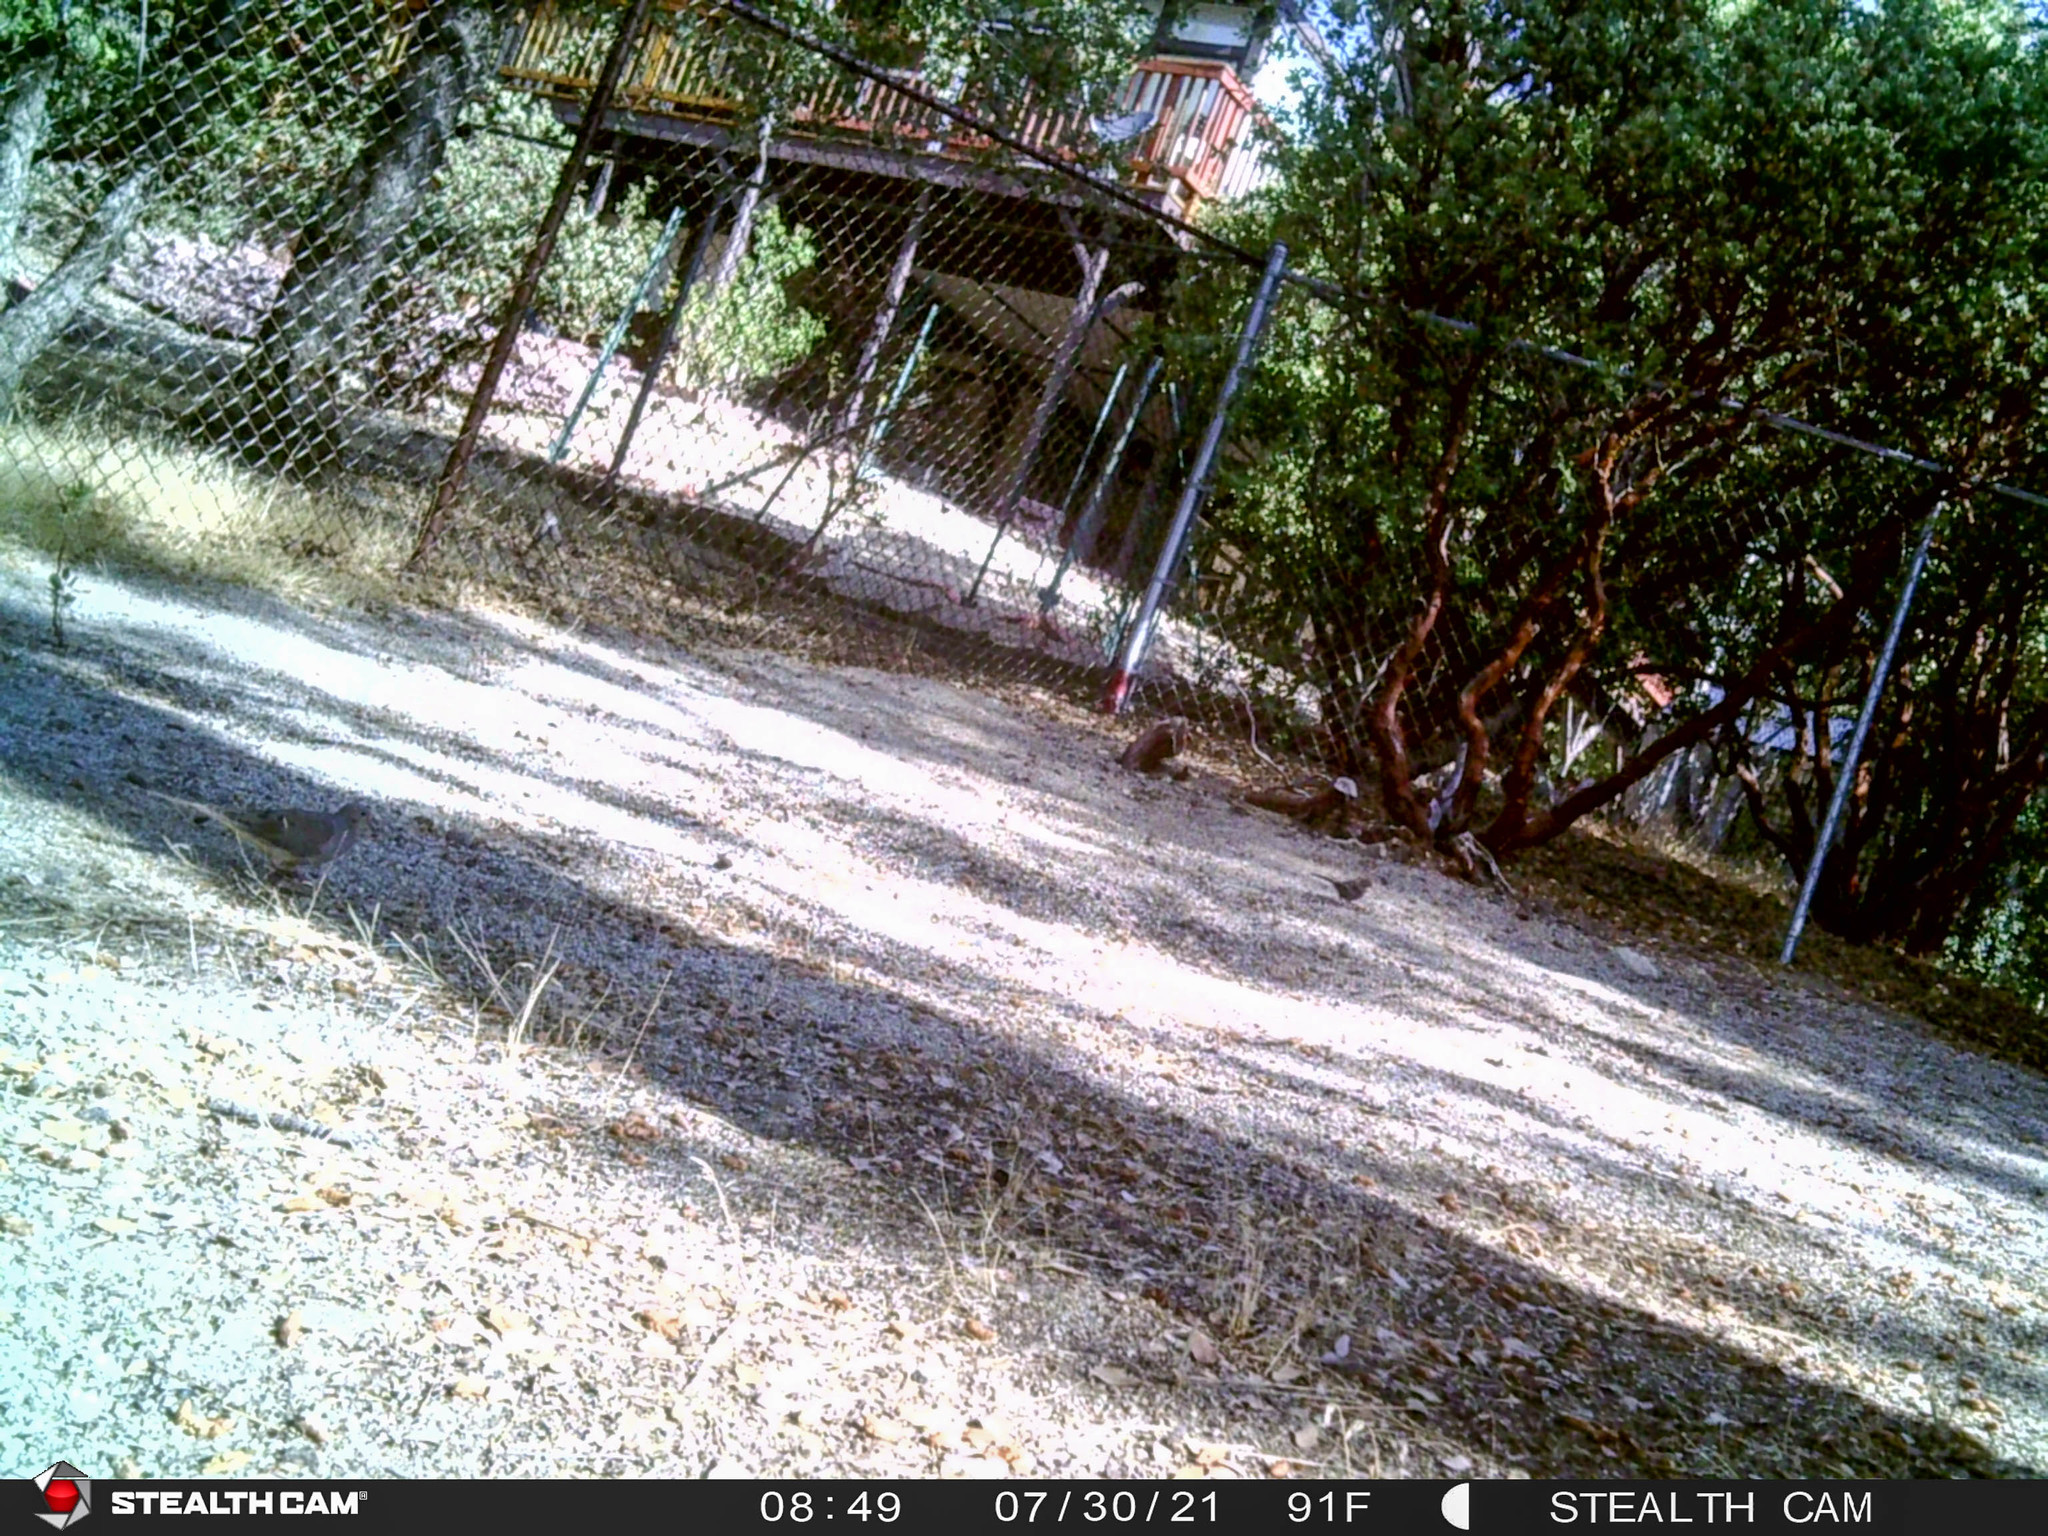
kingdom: Animalia
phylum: Chordata
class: Aves
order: Passeriformes
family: Passerellidae
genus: Pipilo
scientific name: Pipilo maculatus
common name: Spotted towhee
